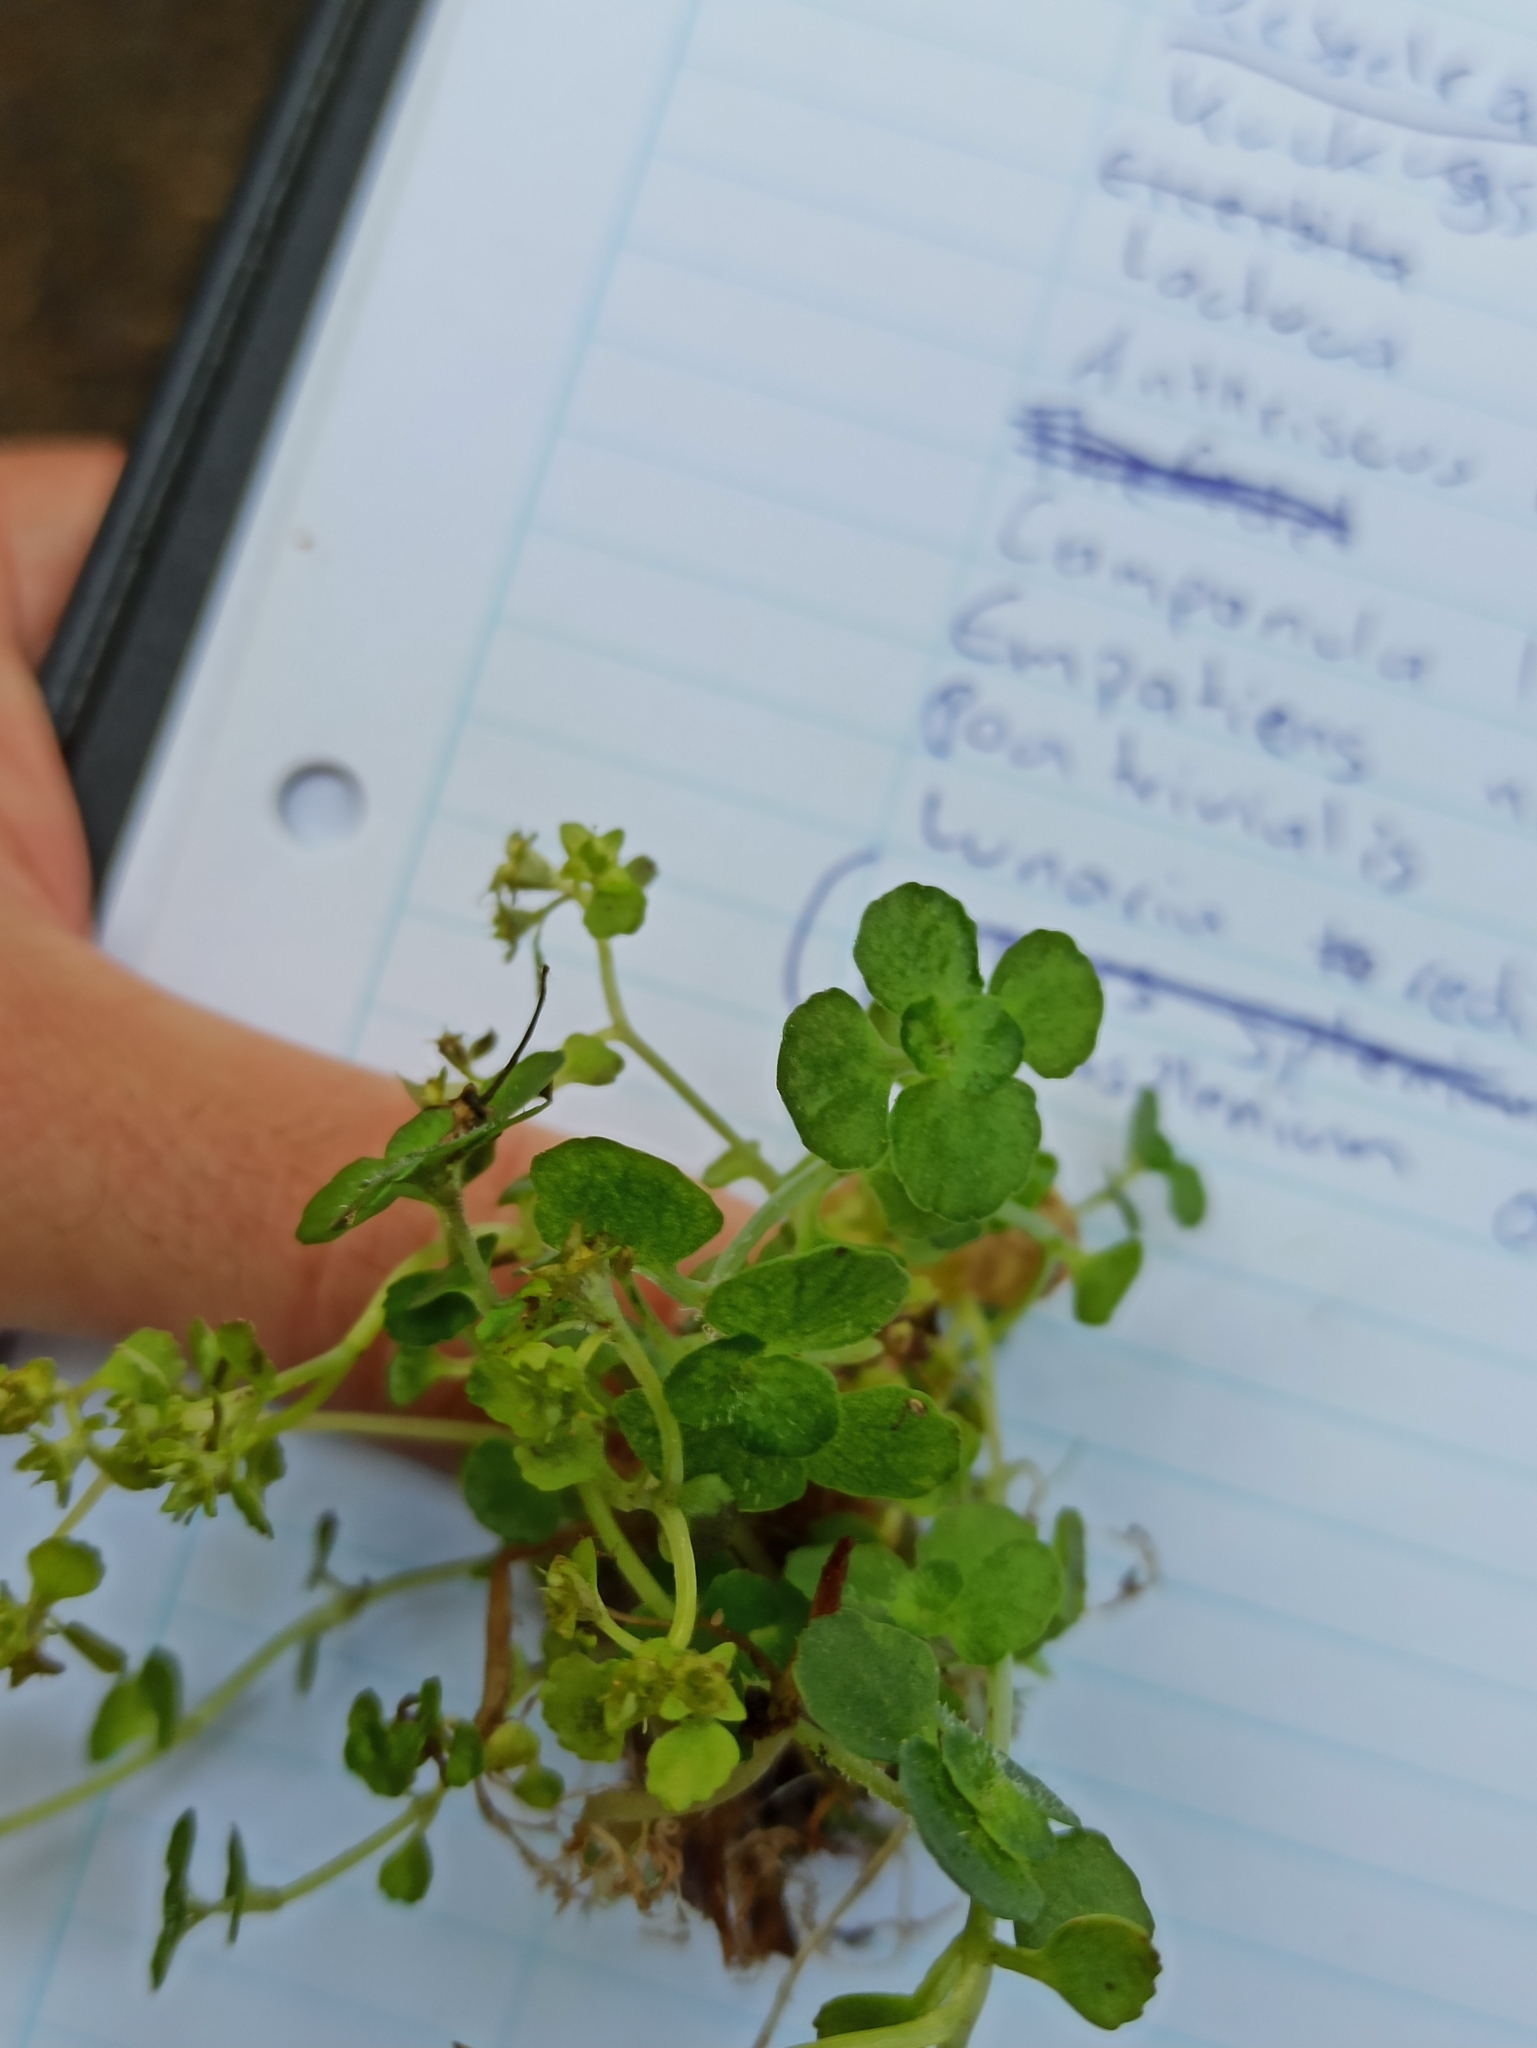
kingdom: Plantae
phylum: Tracheophyta
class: Magnoliopsida
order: Saxifragales
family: Saxifragaceae
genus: Chrysosplenium
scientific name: Chrysosplenium oppositifolium
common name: Opposite-leaved golden-saxifrage
